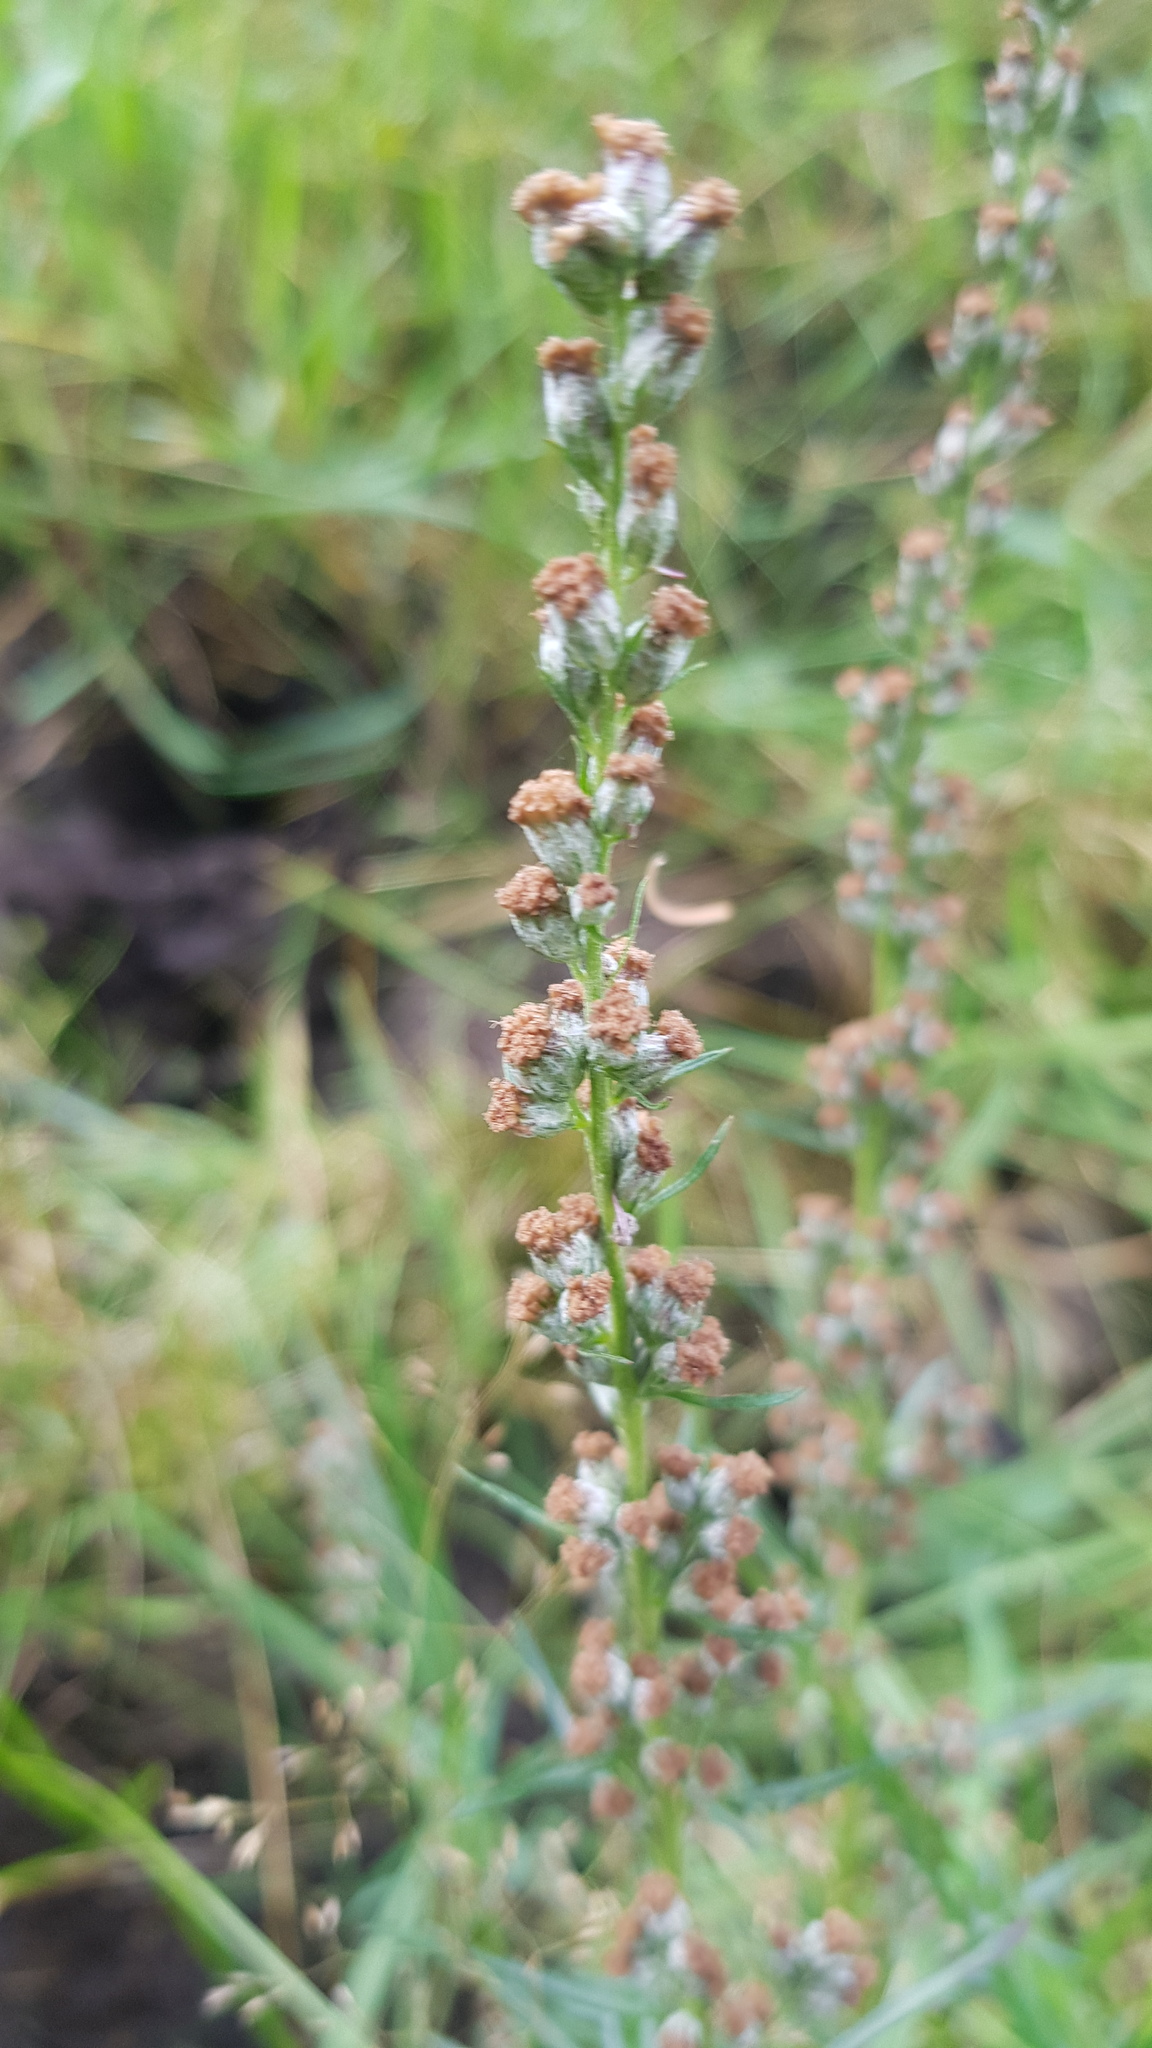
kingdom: Plantae
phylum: Tracheophyta
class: Magnoliopsida
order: Asterales
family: Asteraceae
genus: Artemisia
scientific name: Artemisia vulgaris
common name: Mugwort
